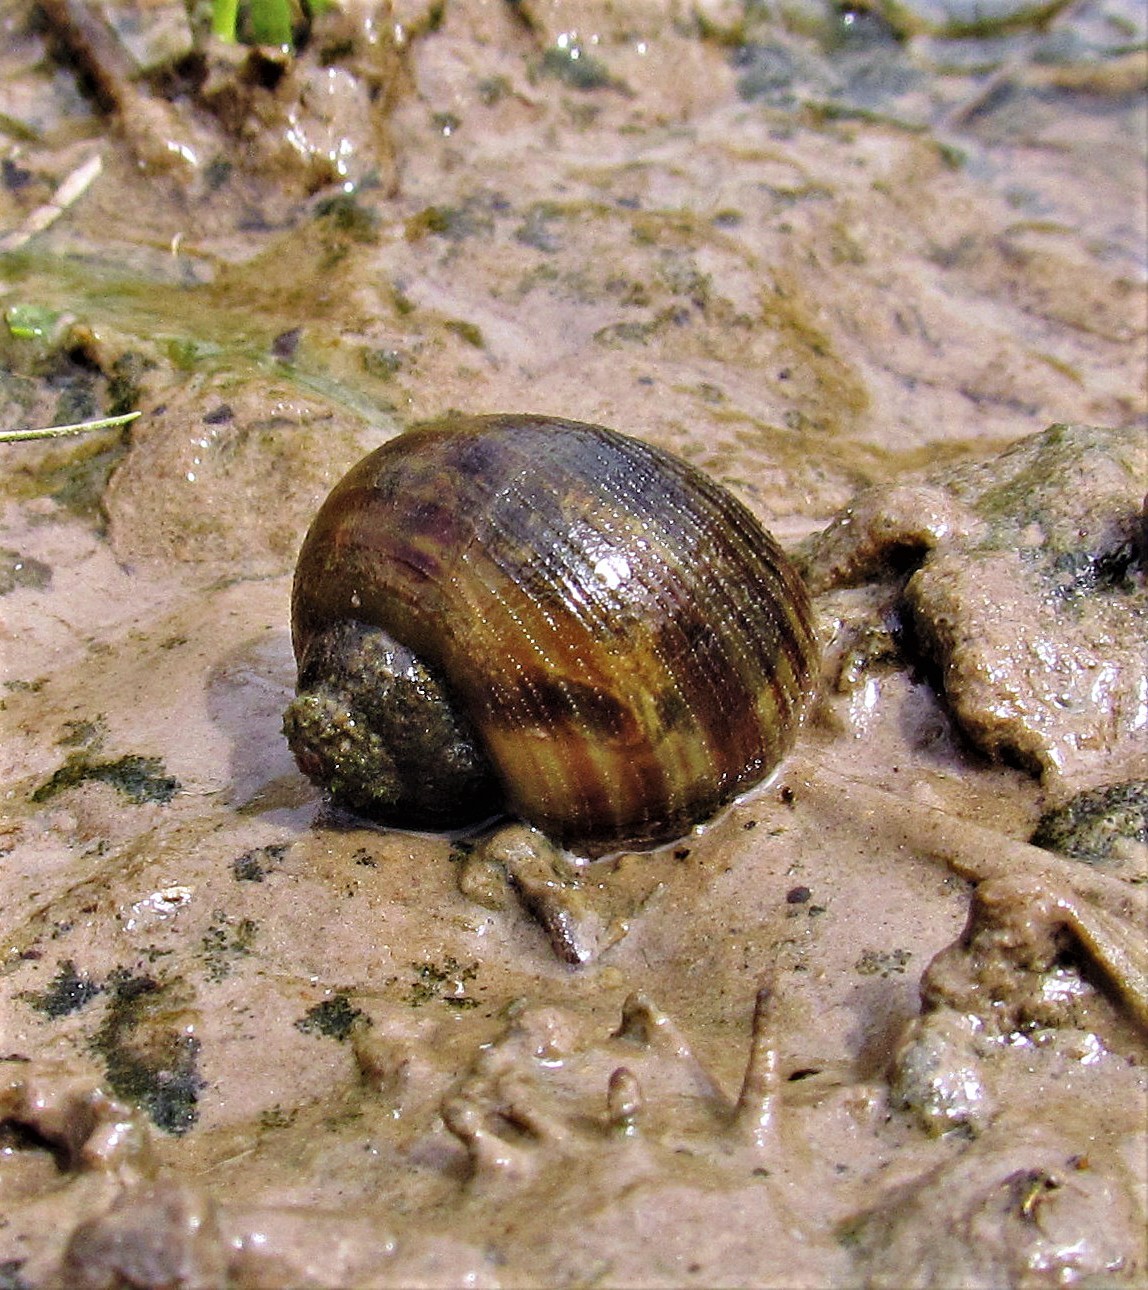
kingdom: Animalia
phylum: Mollusca
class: Gastropoda
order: Architaenioglossa
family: Ampullariidae
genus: Pomacea
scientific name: Pomacea canaliculata
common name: Channeled applesnail
